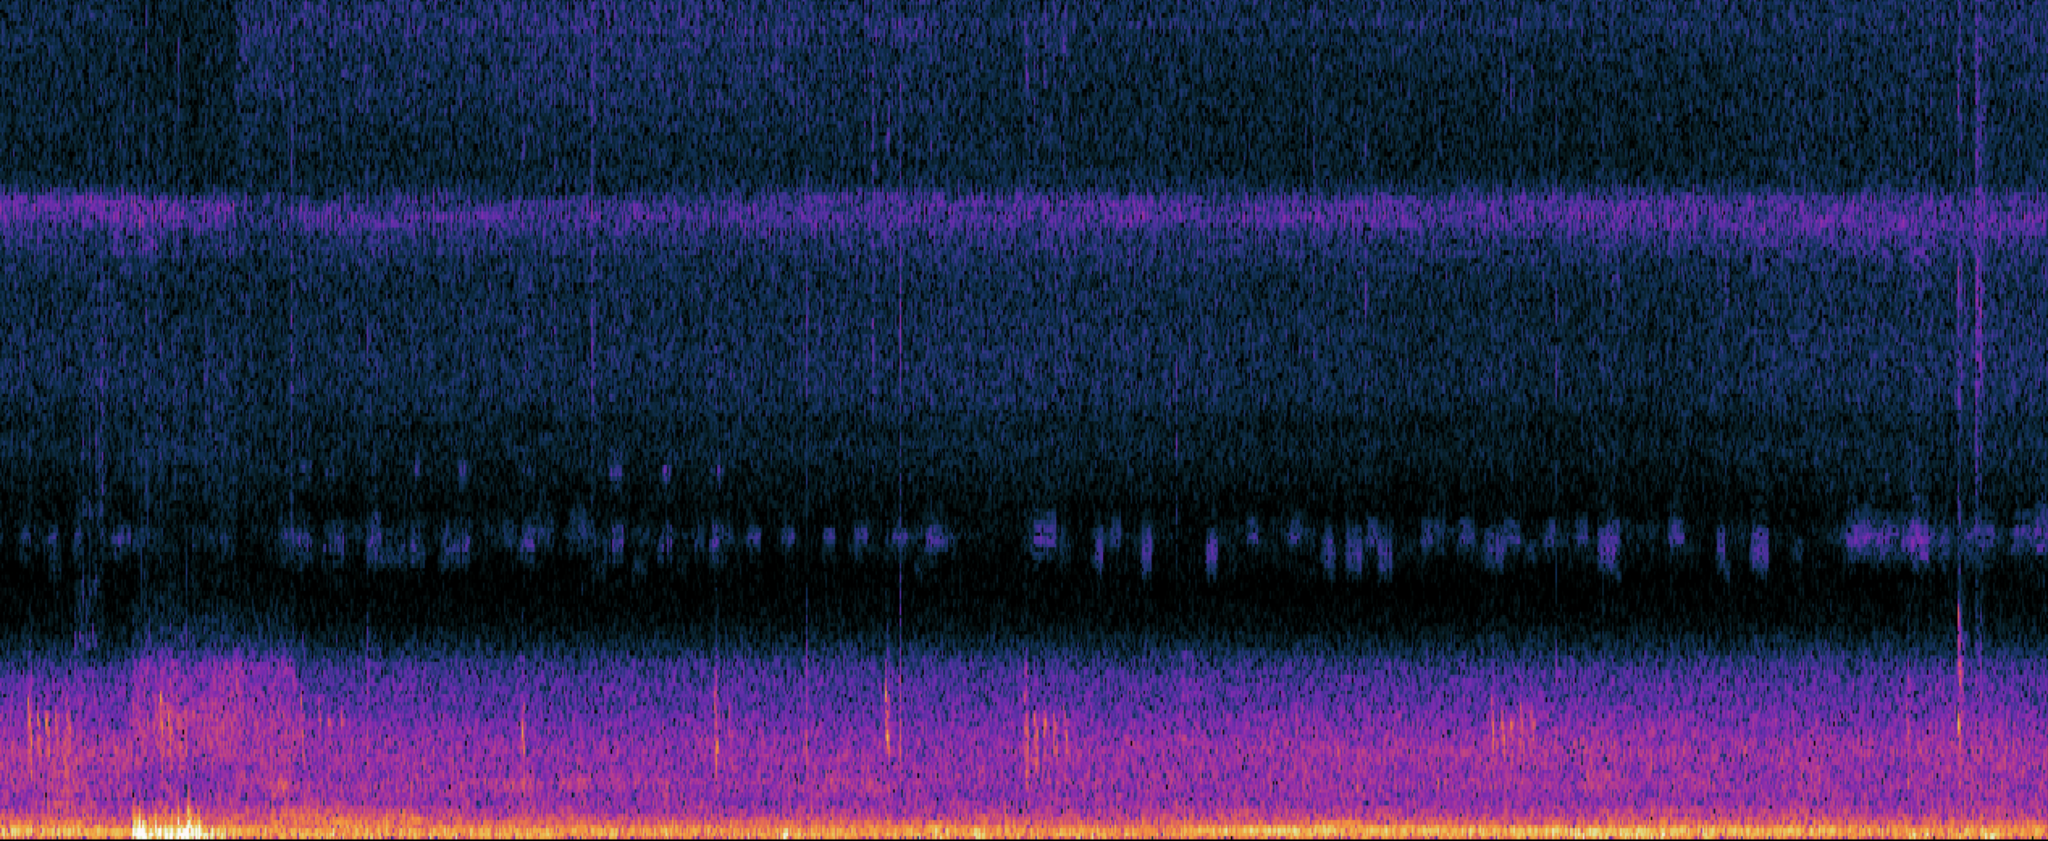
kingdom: Animalia
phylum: Chordata
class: Aves
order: Strigiformes
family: Strigidae
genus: Megascops
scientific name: Megascops asio
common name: Eastern screech-owl
